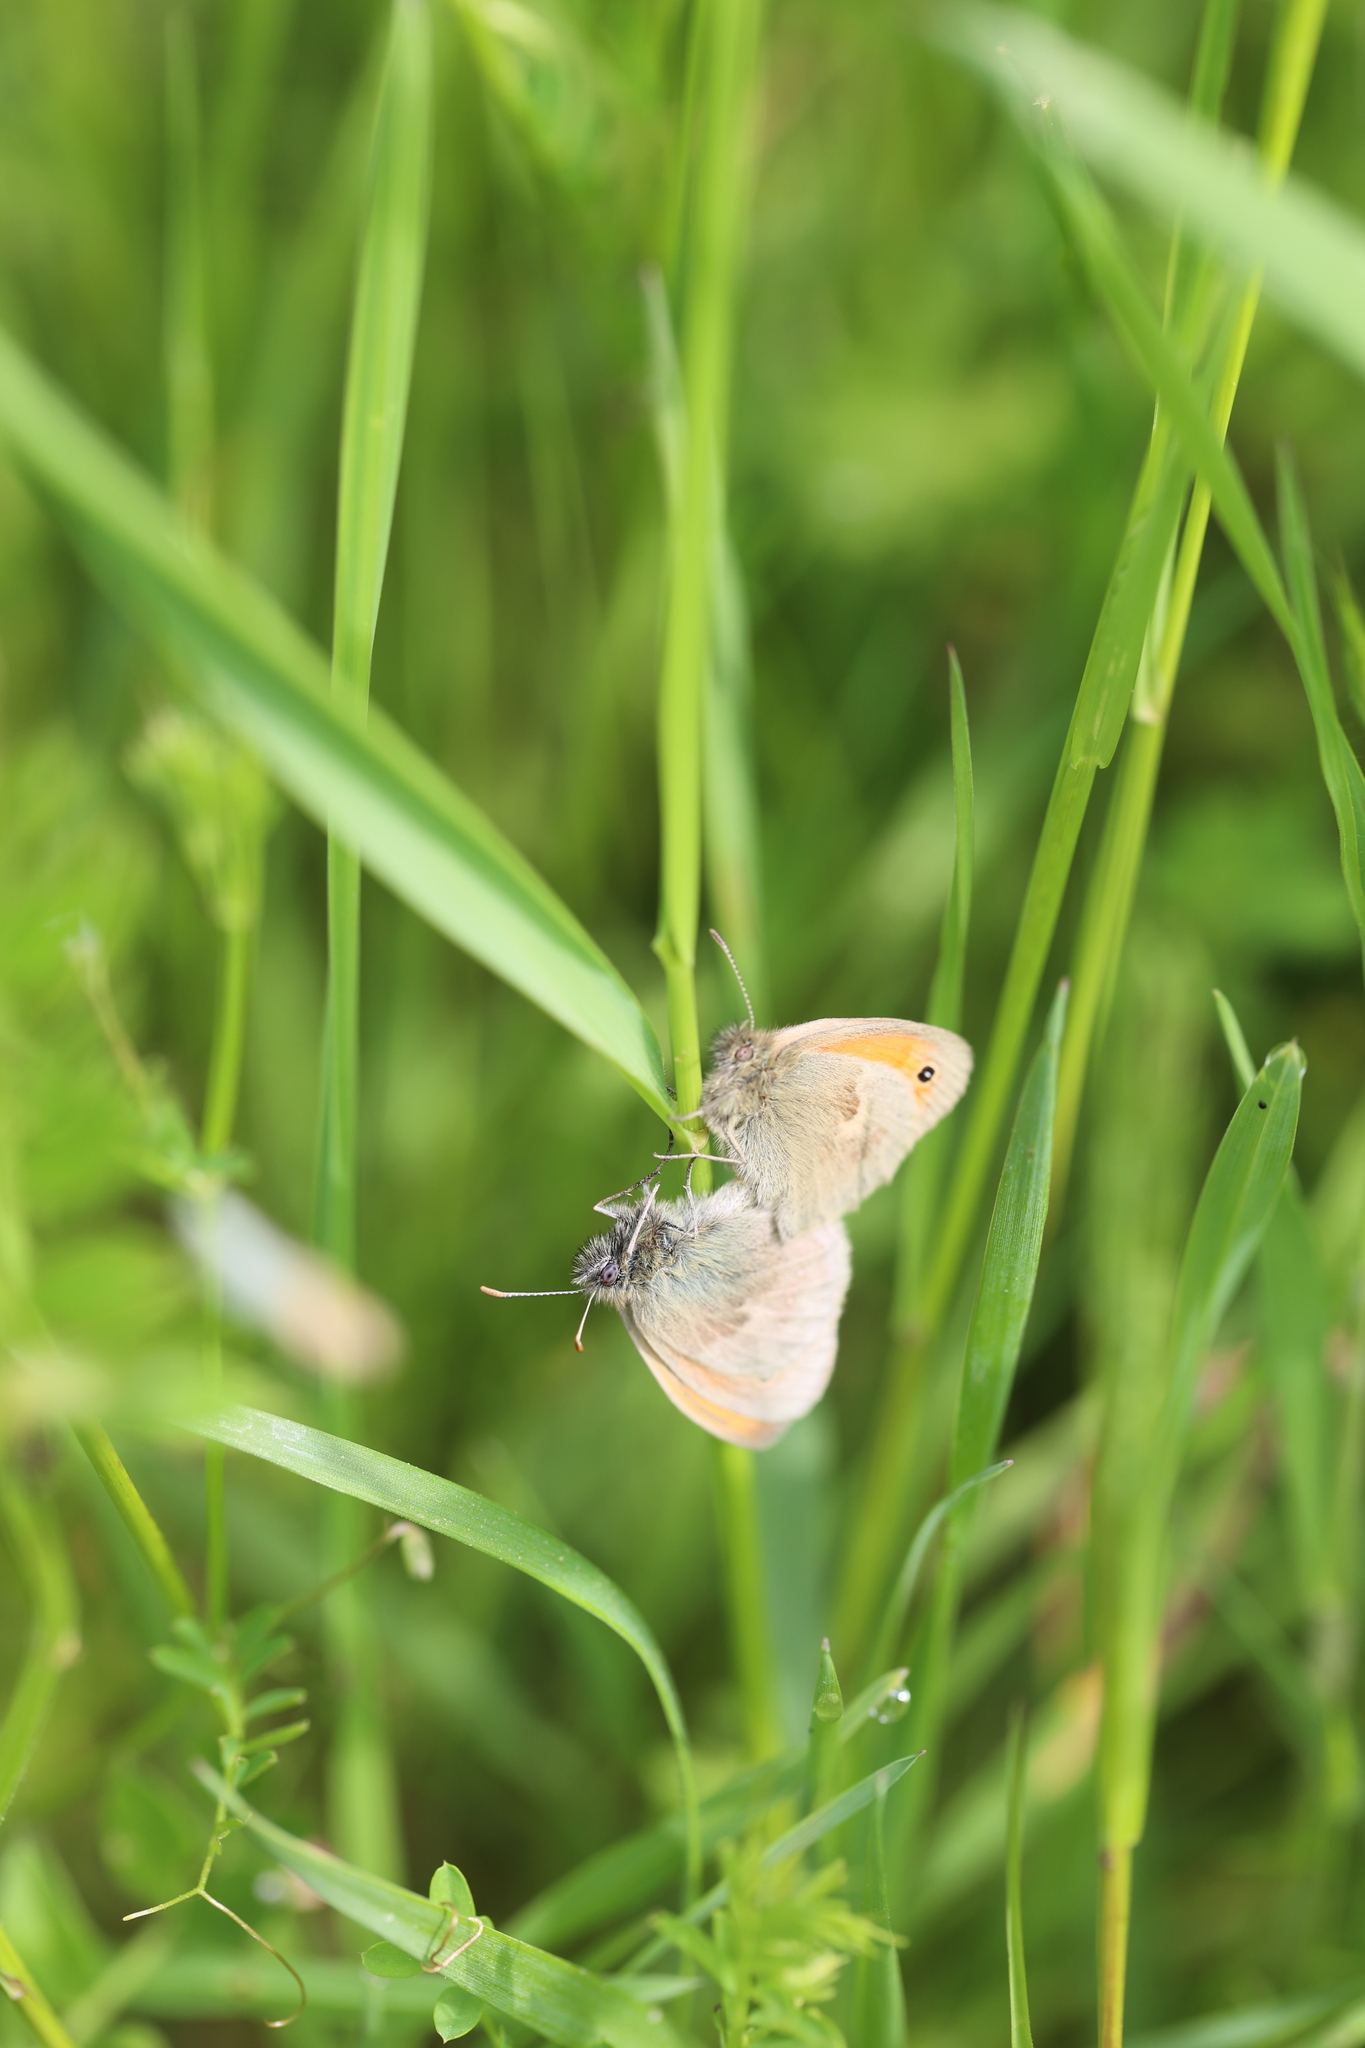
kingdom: Animalia
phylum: Arthropoda
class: Insecta
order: Lepidoptera
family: Nymphalidae
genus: Coenonympha
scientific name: Coenonympha pamphilus
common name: Small heath
